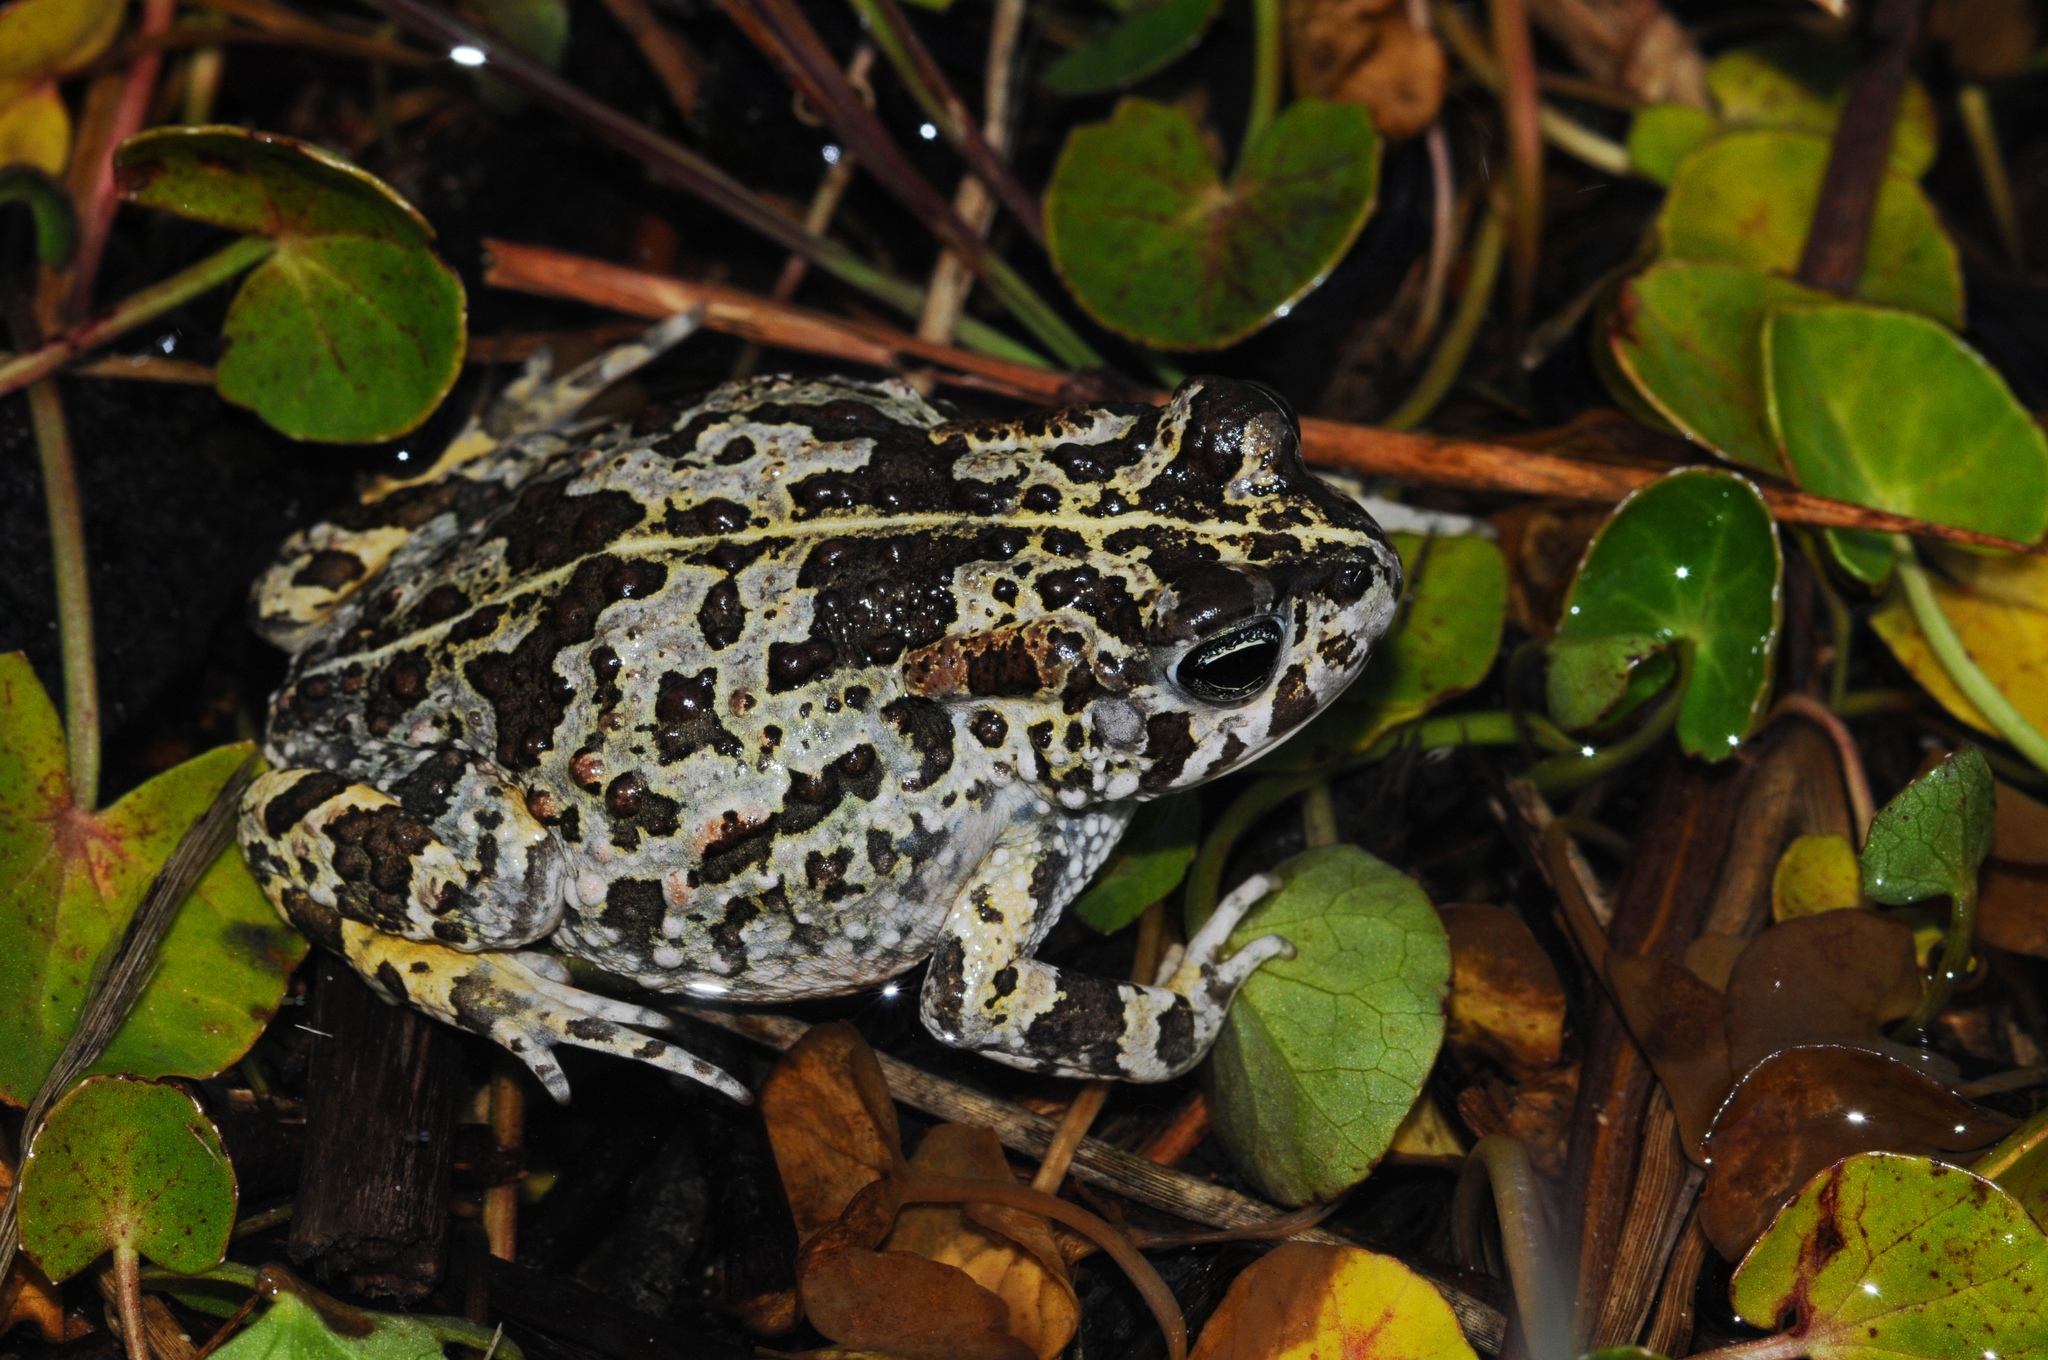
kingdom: Animalia
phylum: Chordata
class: Amphibia
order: Anura
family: Bufonidae
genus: Vandijkophrynus
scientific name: Vandijkophrynus angusticeps
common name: Sand toad
